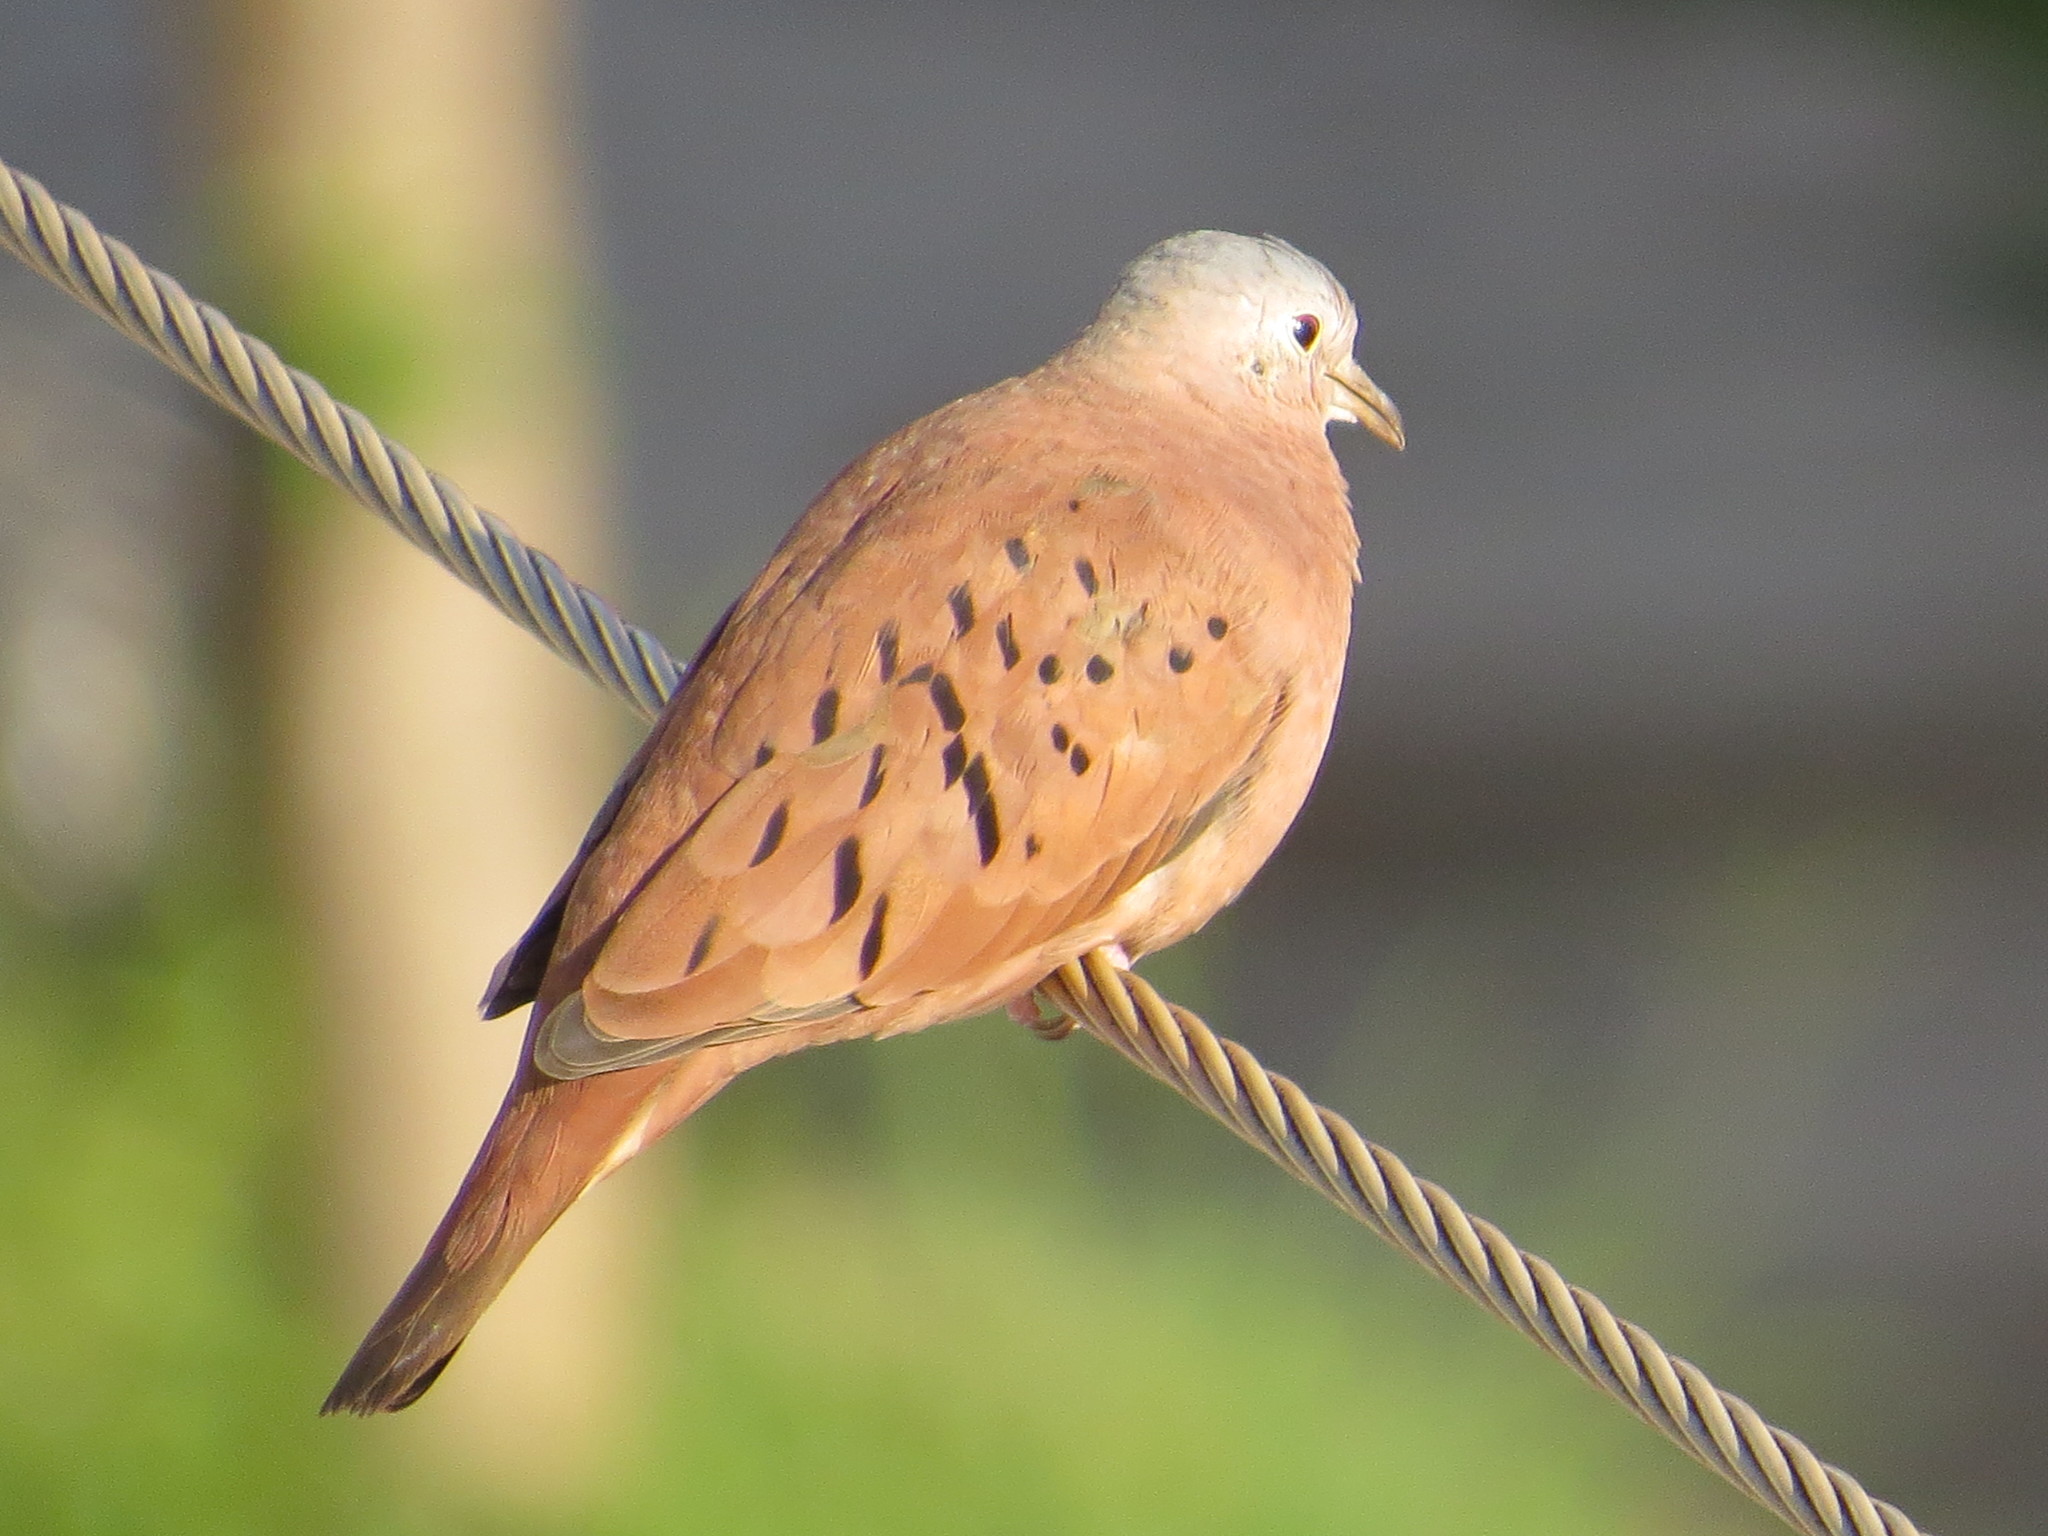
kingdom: Animalia
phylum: Chordata
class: Aves
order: Columbiformes
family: Columbidae
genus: Columbina
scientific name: Columbina talpacoti
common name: Ruddy ground dove
